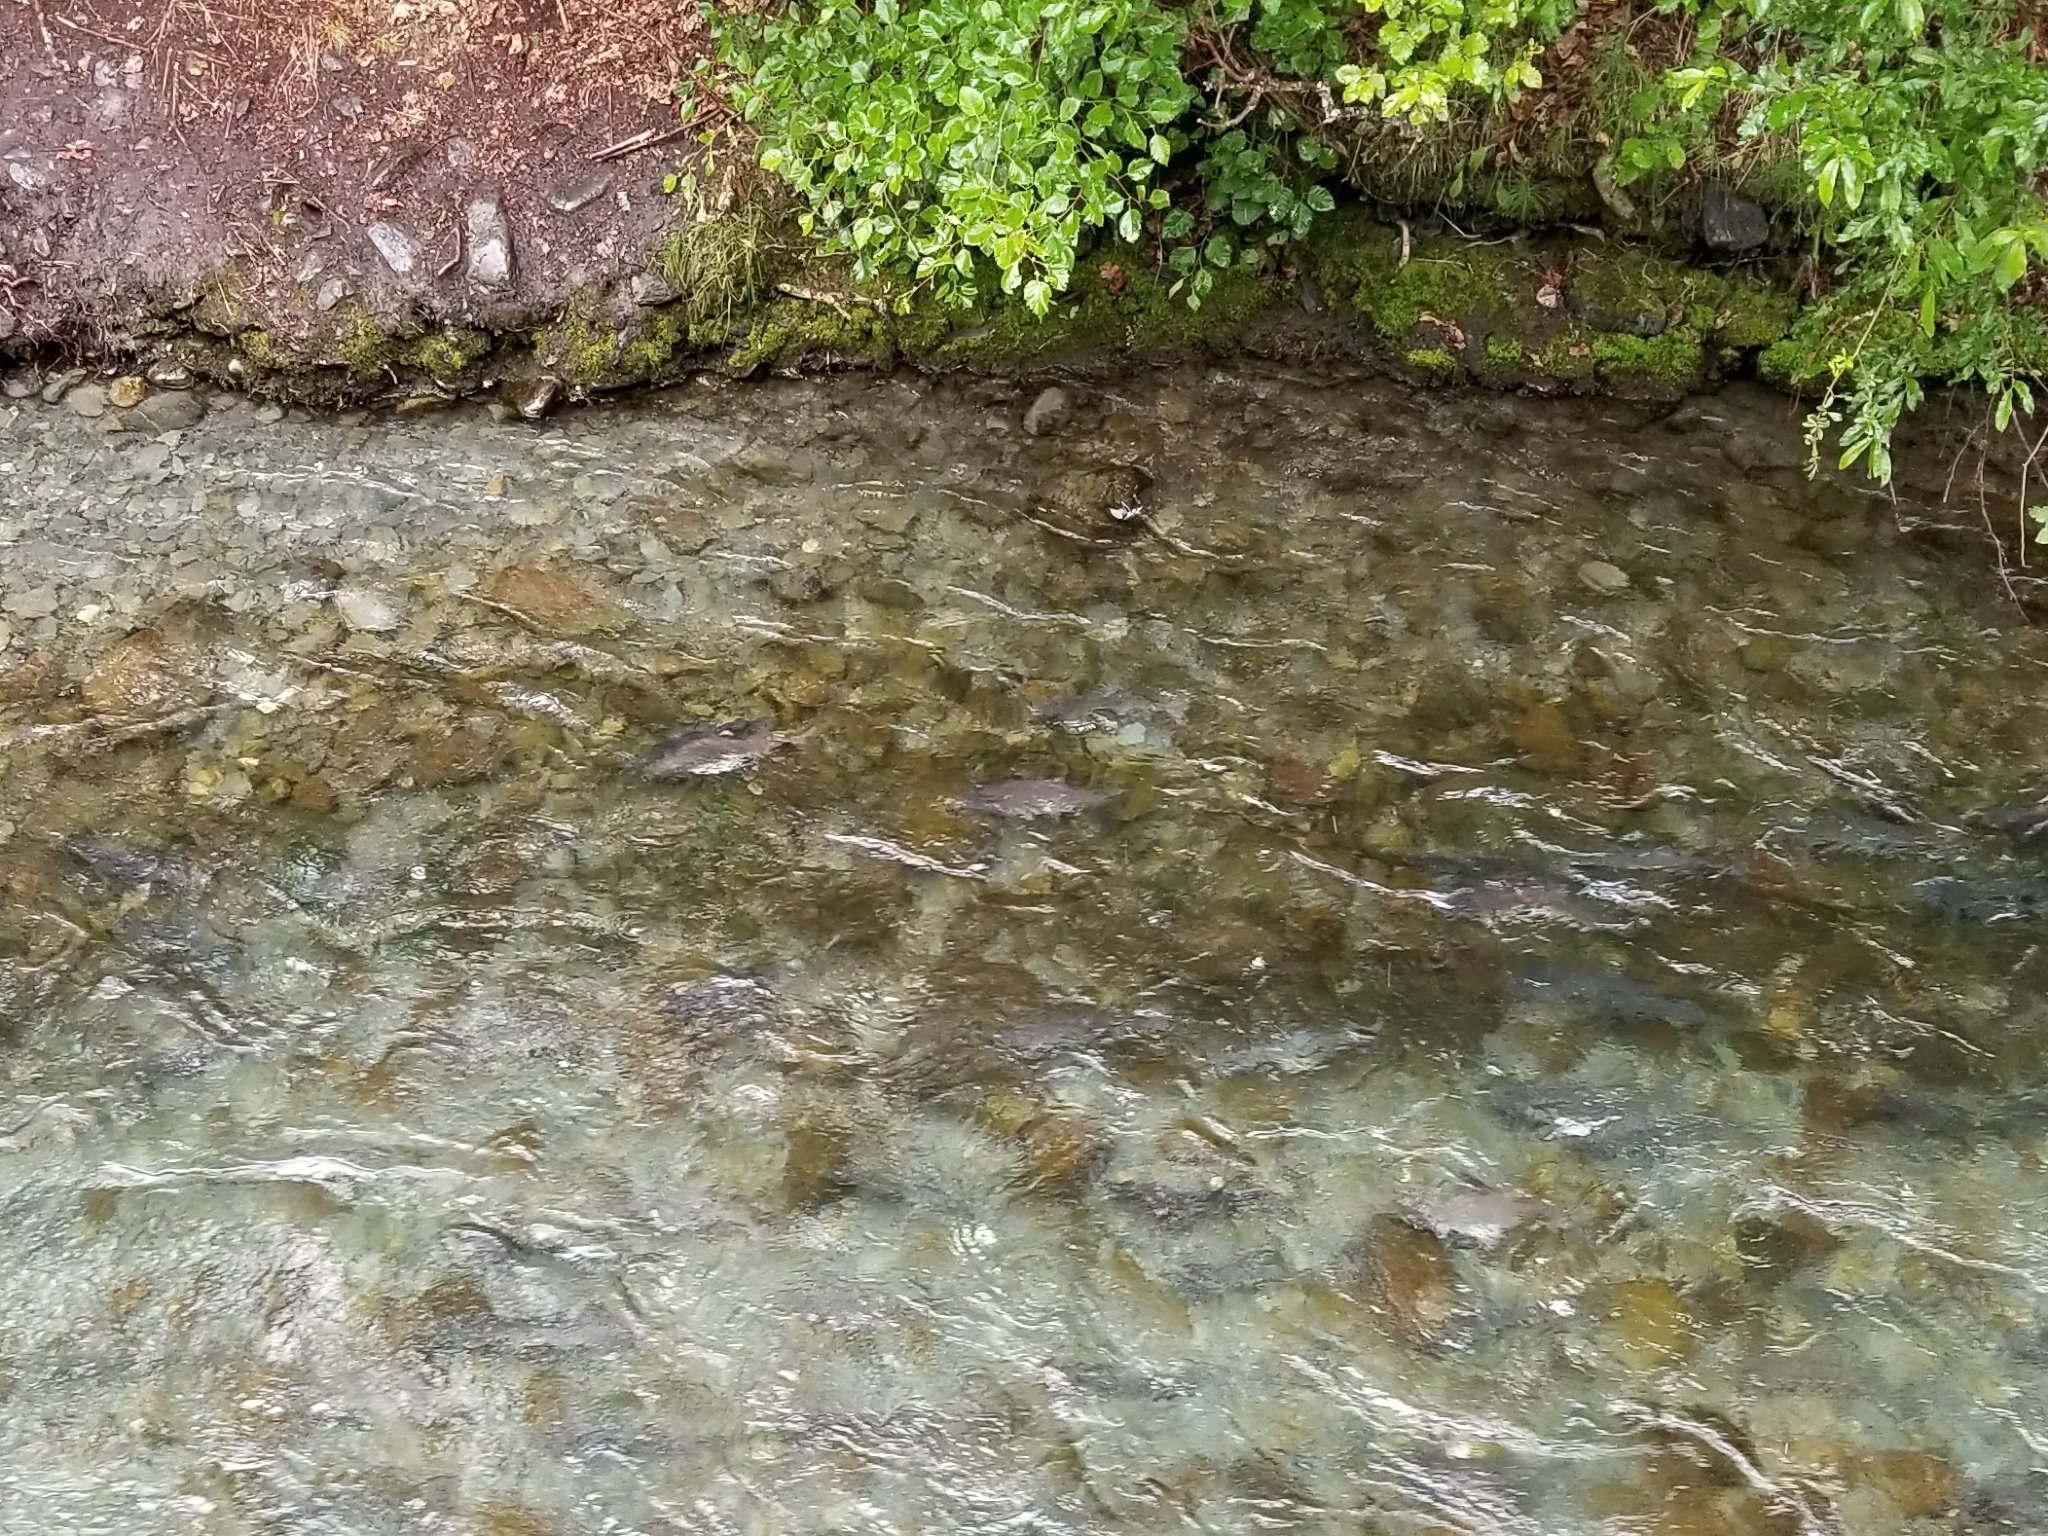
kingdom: Animalia
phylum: Chordata
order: Salmoniformes
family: Salmonidae
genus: Oncorhynchus
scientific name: Oncorhynchus gorbuscha
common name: Humpback salmon
